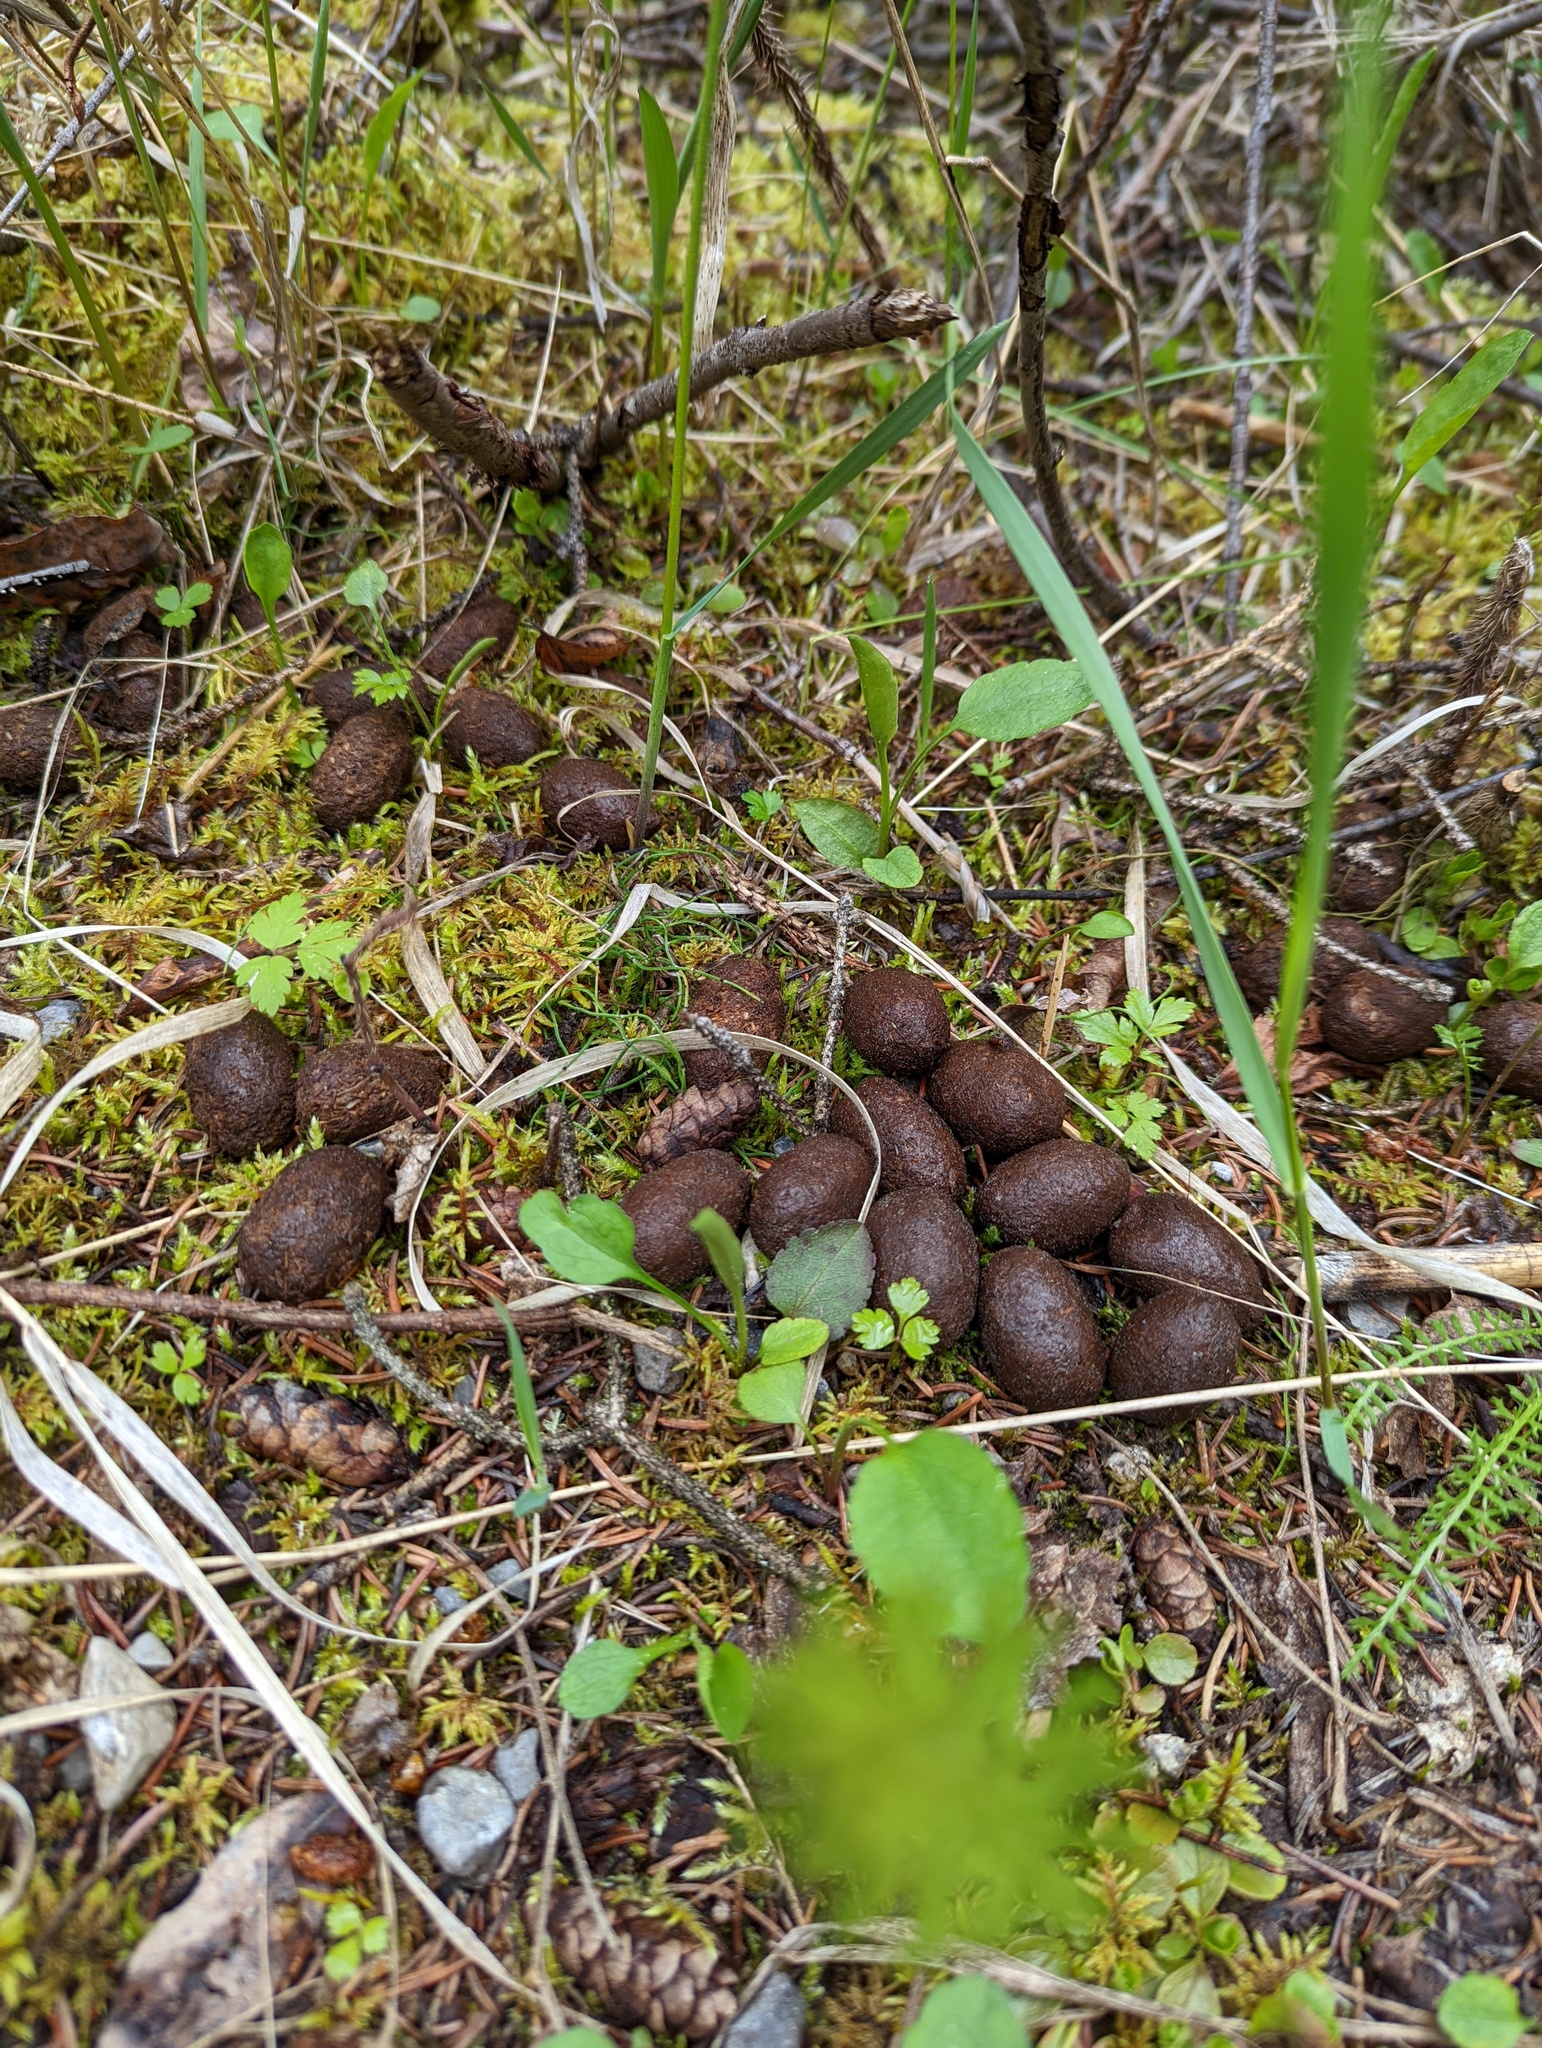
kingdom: Animalia
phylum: Chordata
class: Mammalia
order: Artiodactyla
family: Cervidae
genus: Alces
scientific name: Alces alces
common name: Moose
